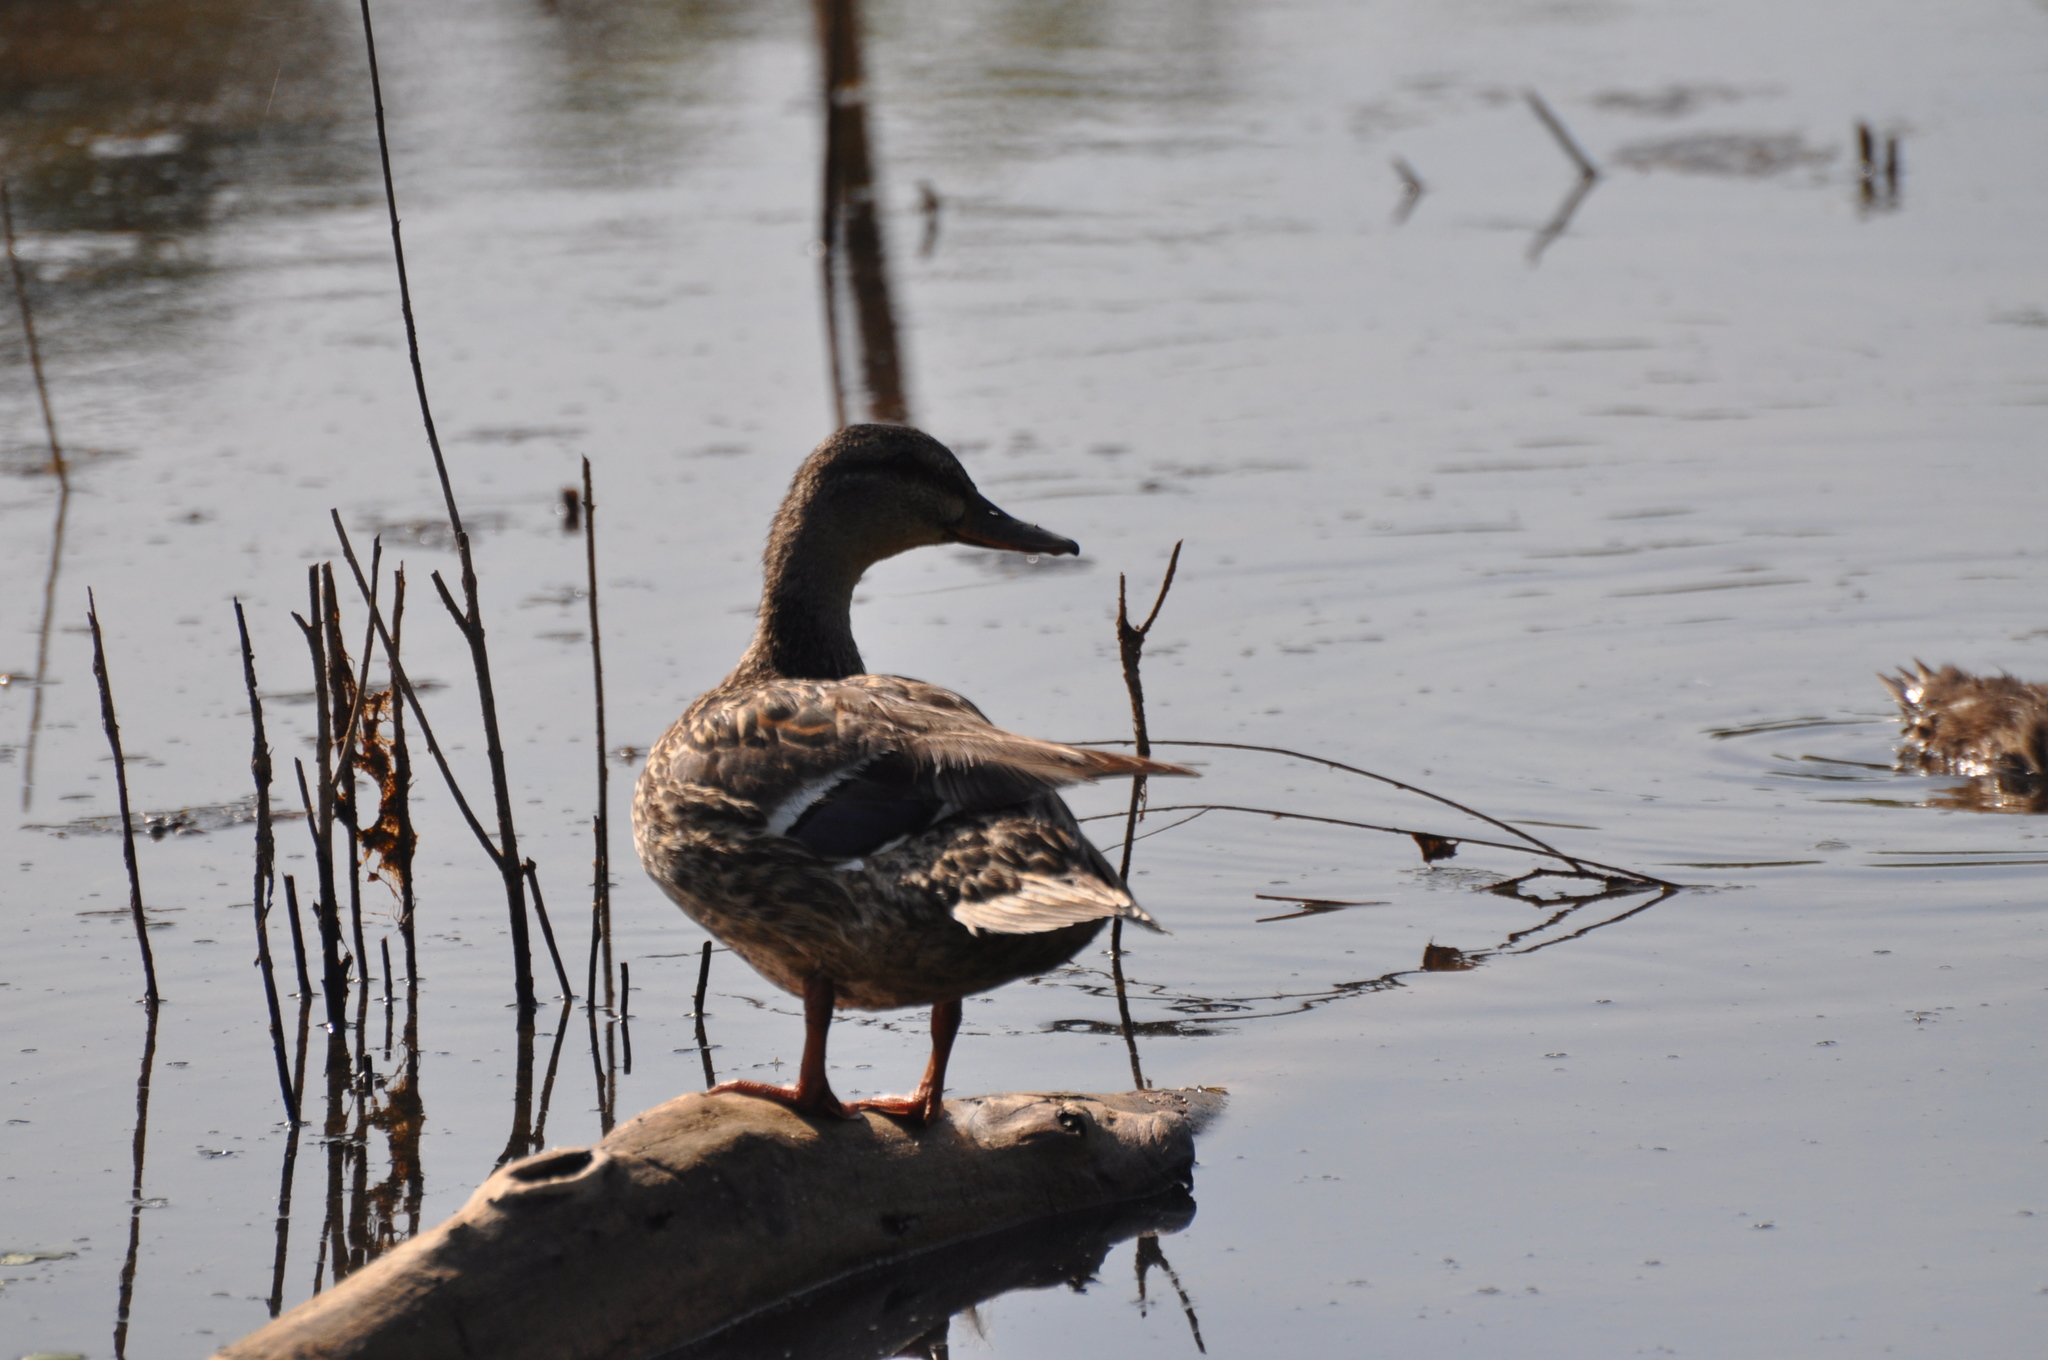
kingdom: Animalia
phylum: Chordata
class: Aves
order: Anseriformes
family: Anatidae
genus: Anas
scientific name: Anas platyrhynchos
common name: Mallard
